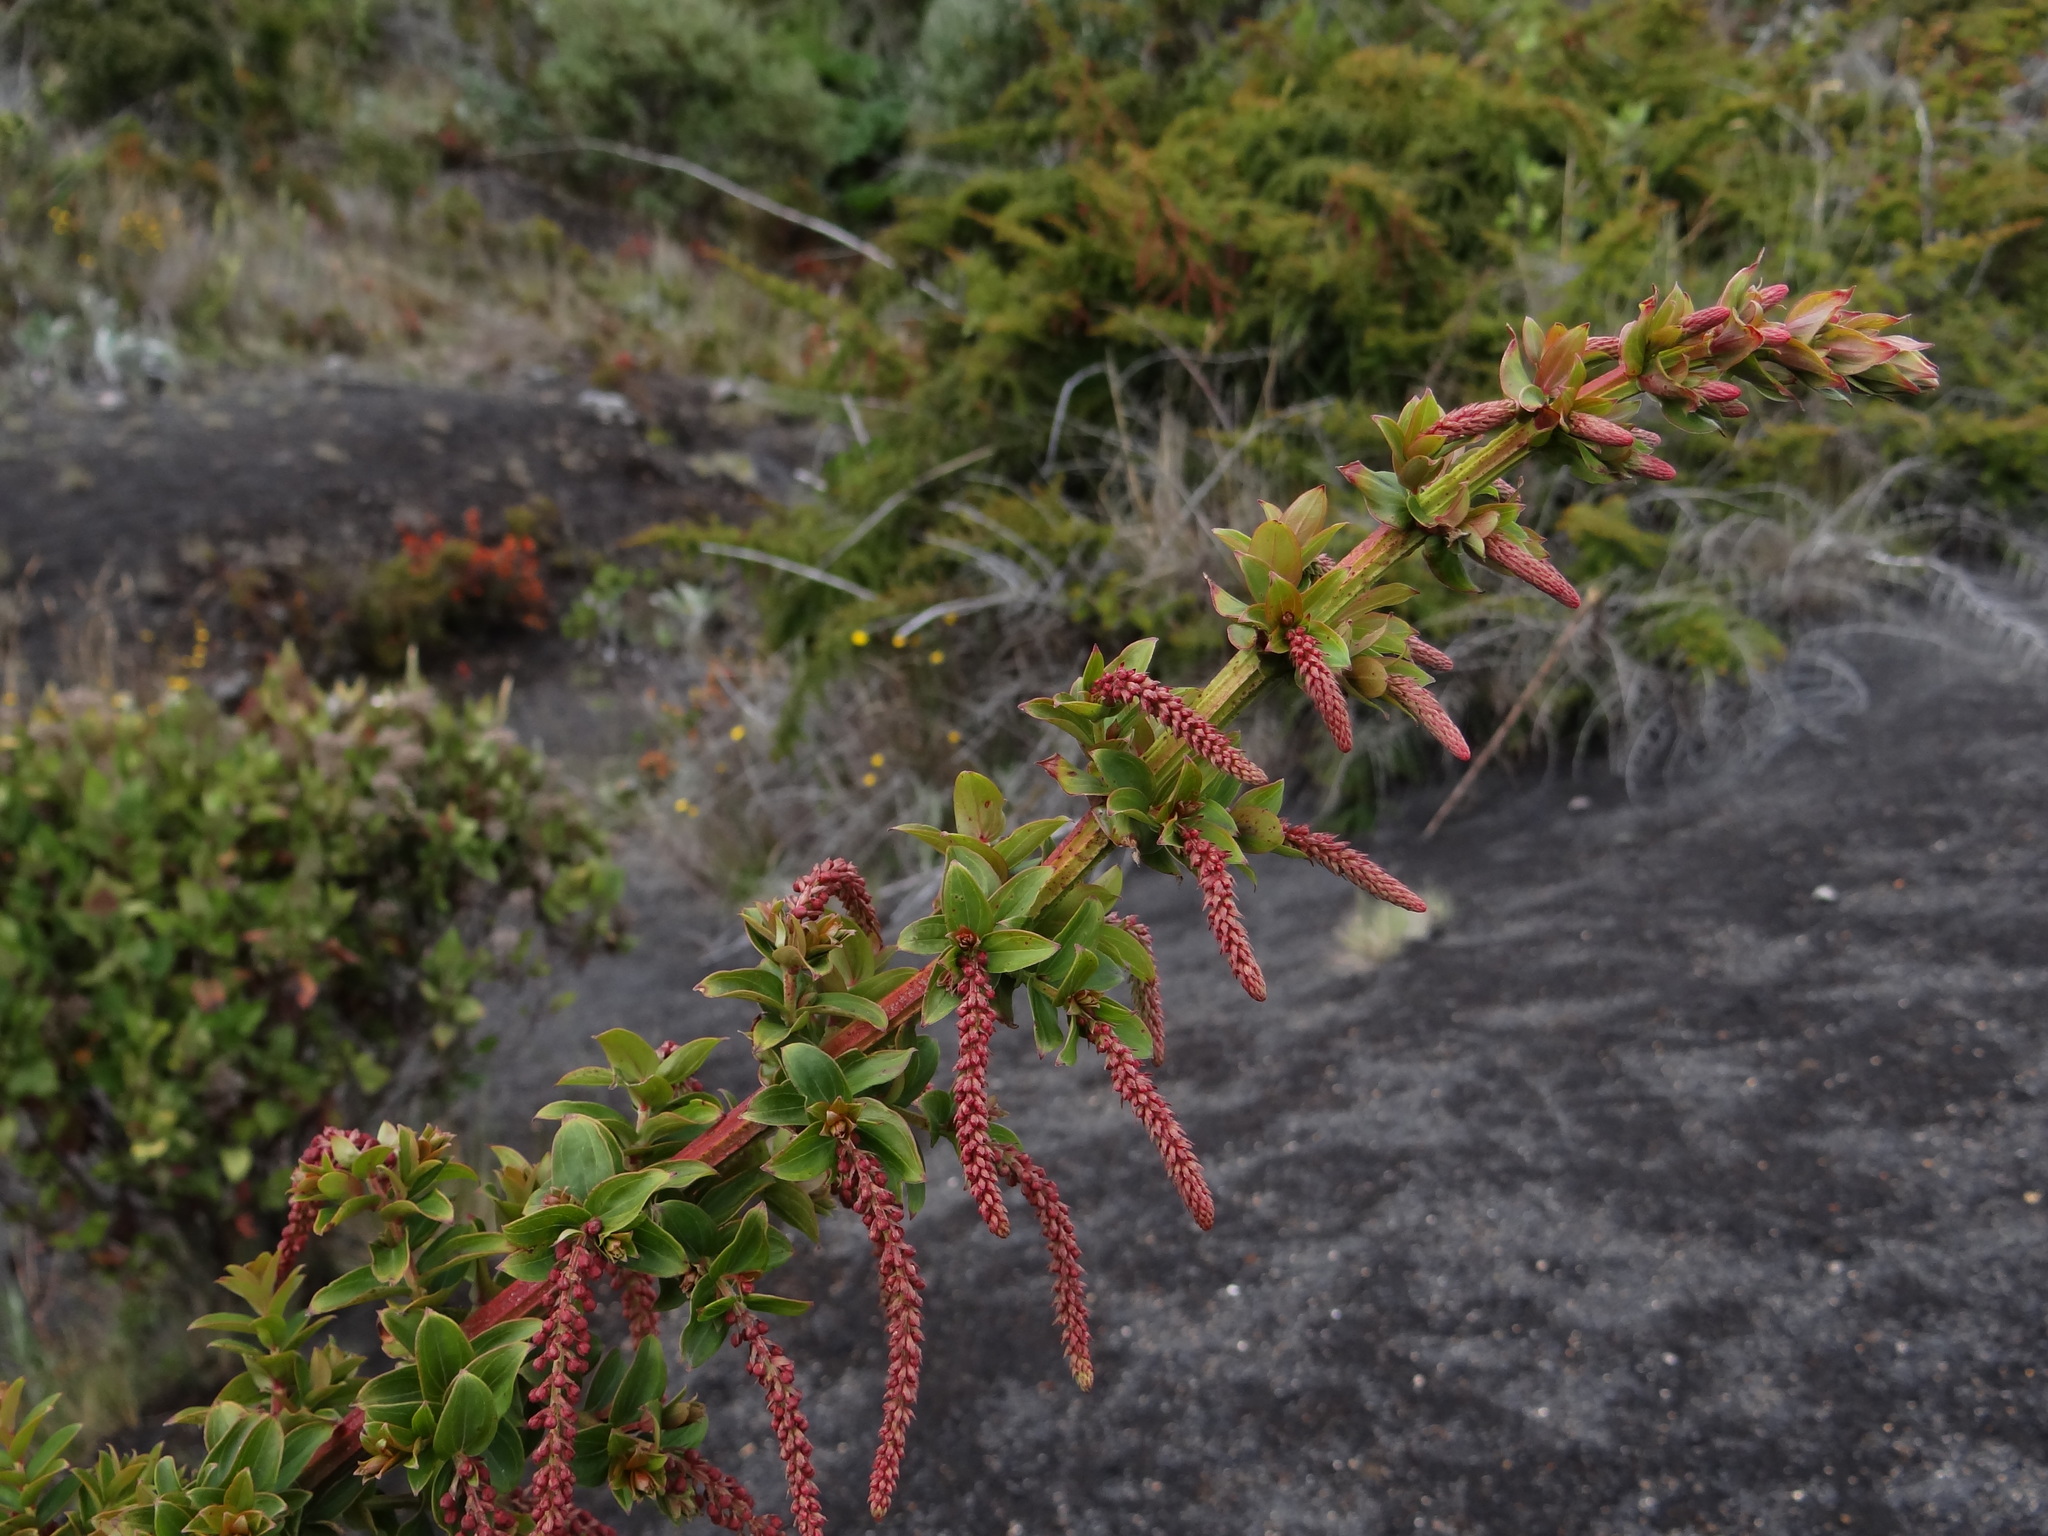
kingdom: Plantae
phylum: Tracheophyta
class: Magnoliopsida
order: Cucurbitales
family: Coriariaceae
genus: Coriaria
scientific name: Coriaria ruscifolia
